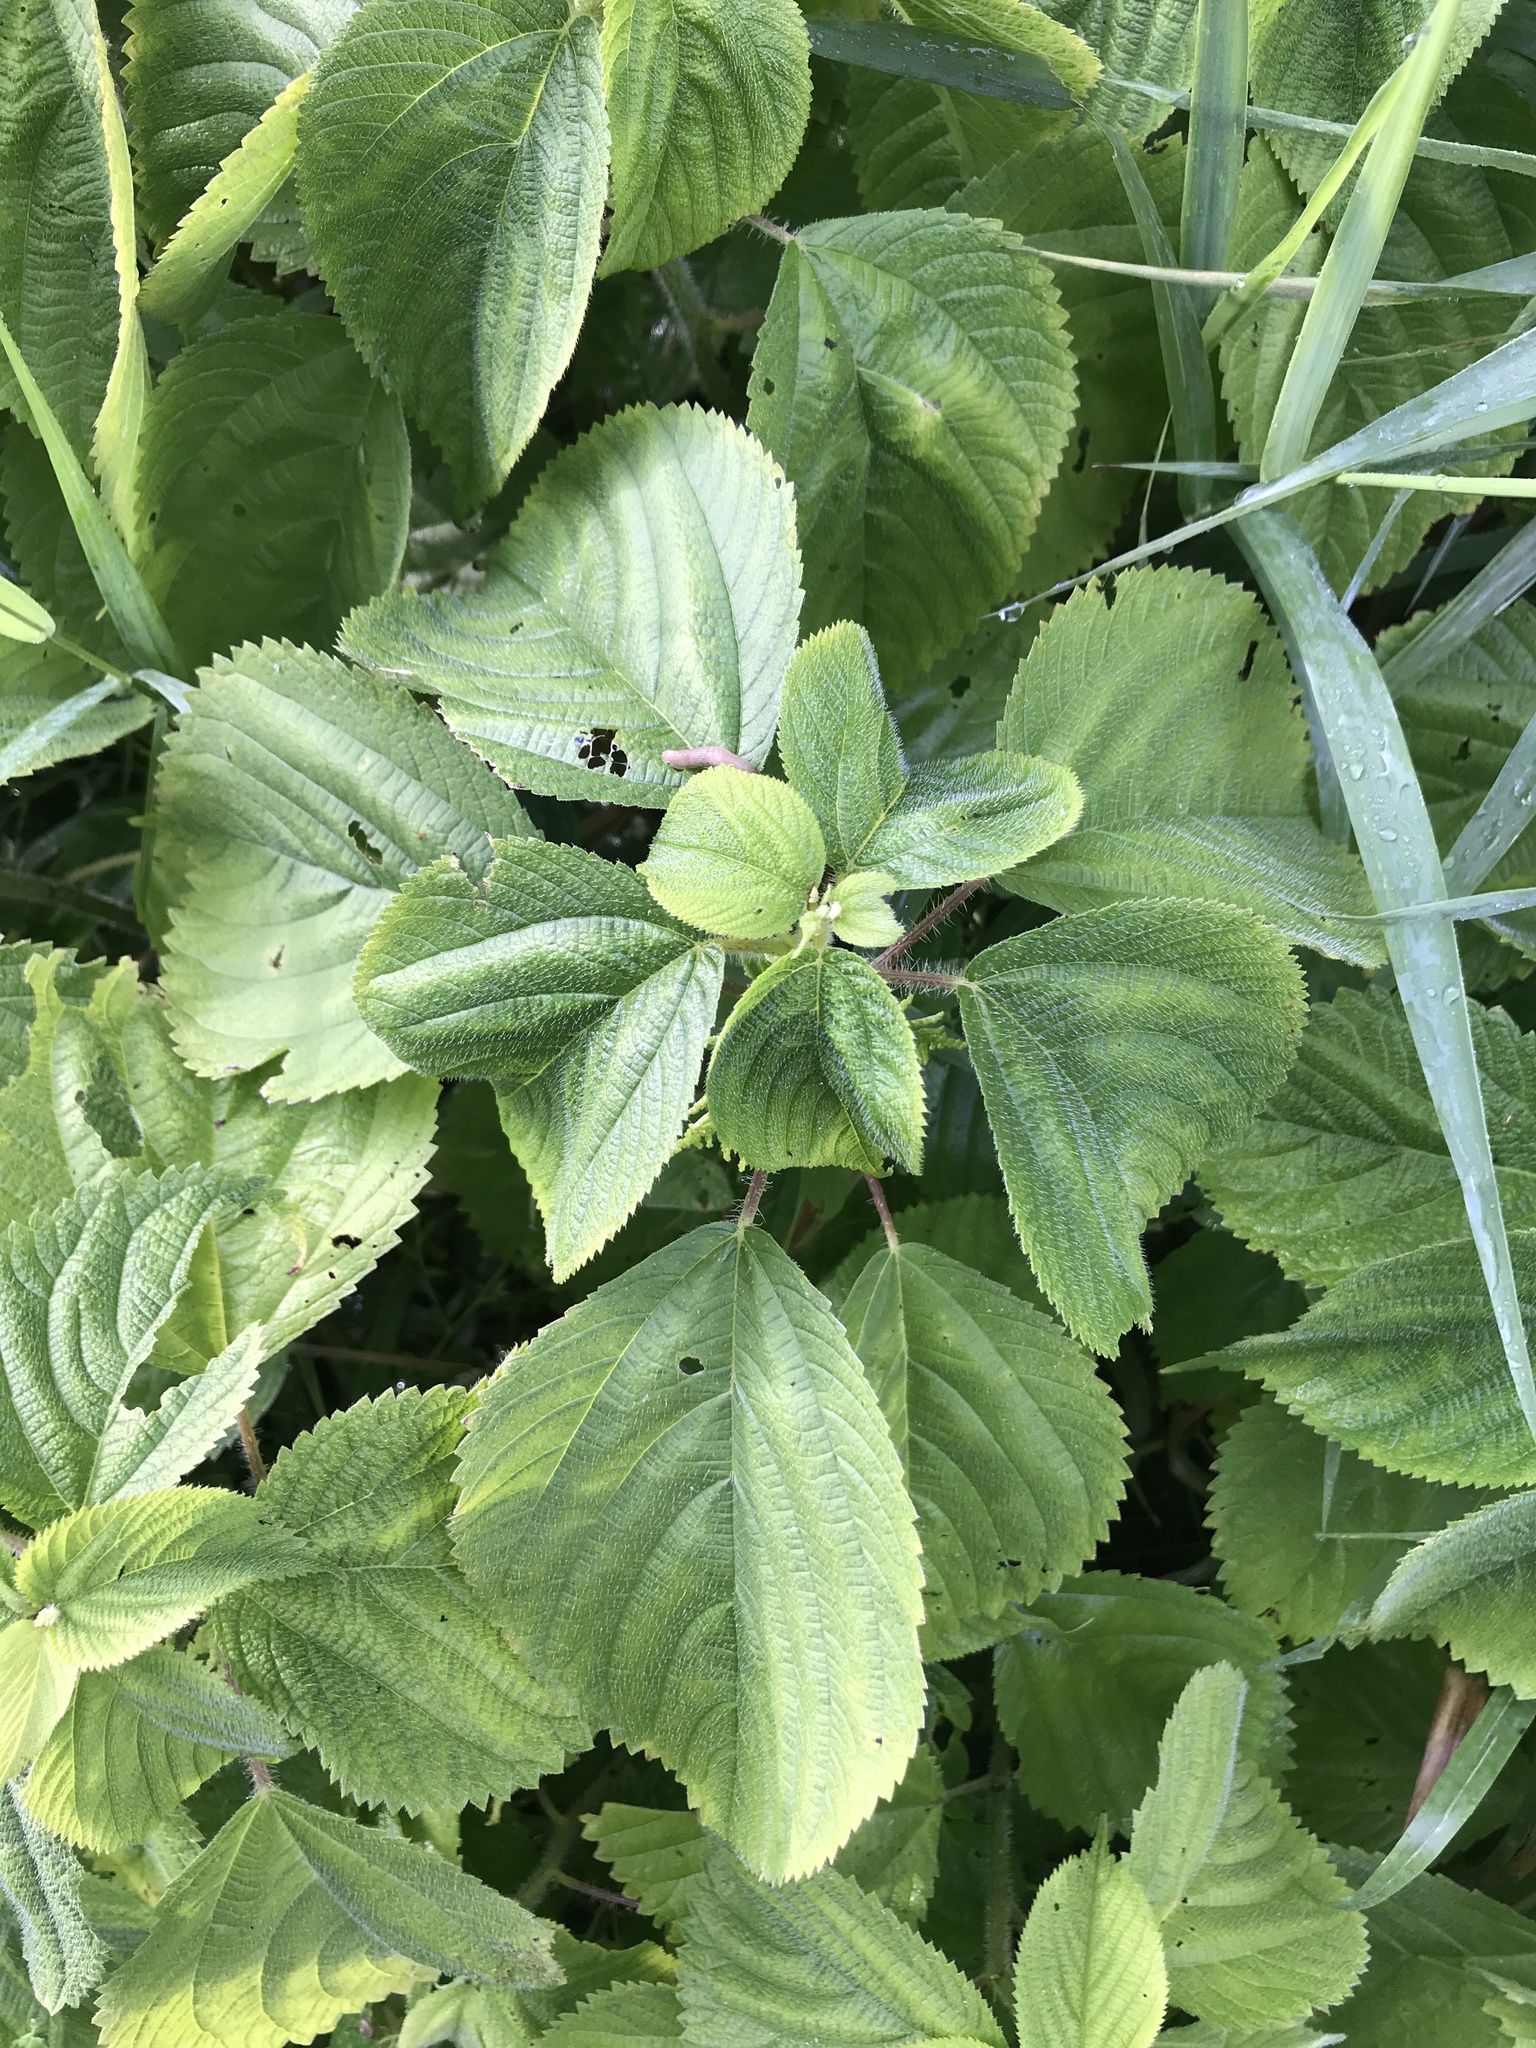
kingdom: Plantae
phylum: Tracheophyta
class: Magnoliopsida
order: Rosales
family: Urticaceae
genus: Laportea
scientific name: Laportea canadensis
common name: Canada nettle
